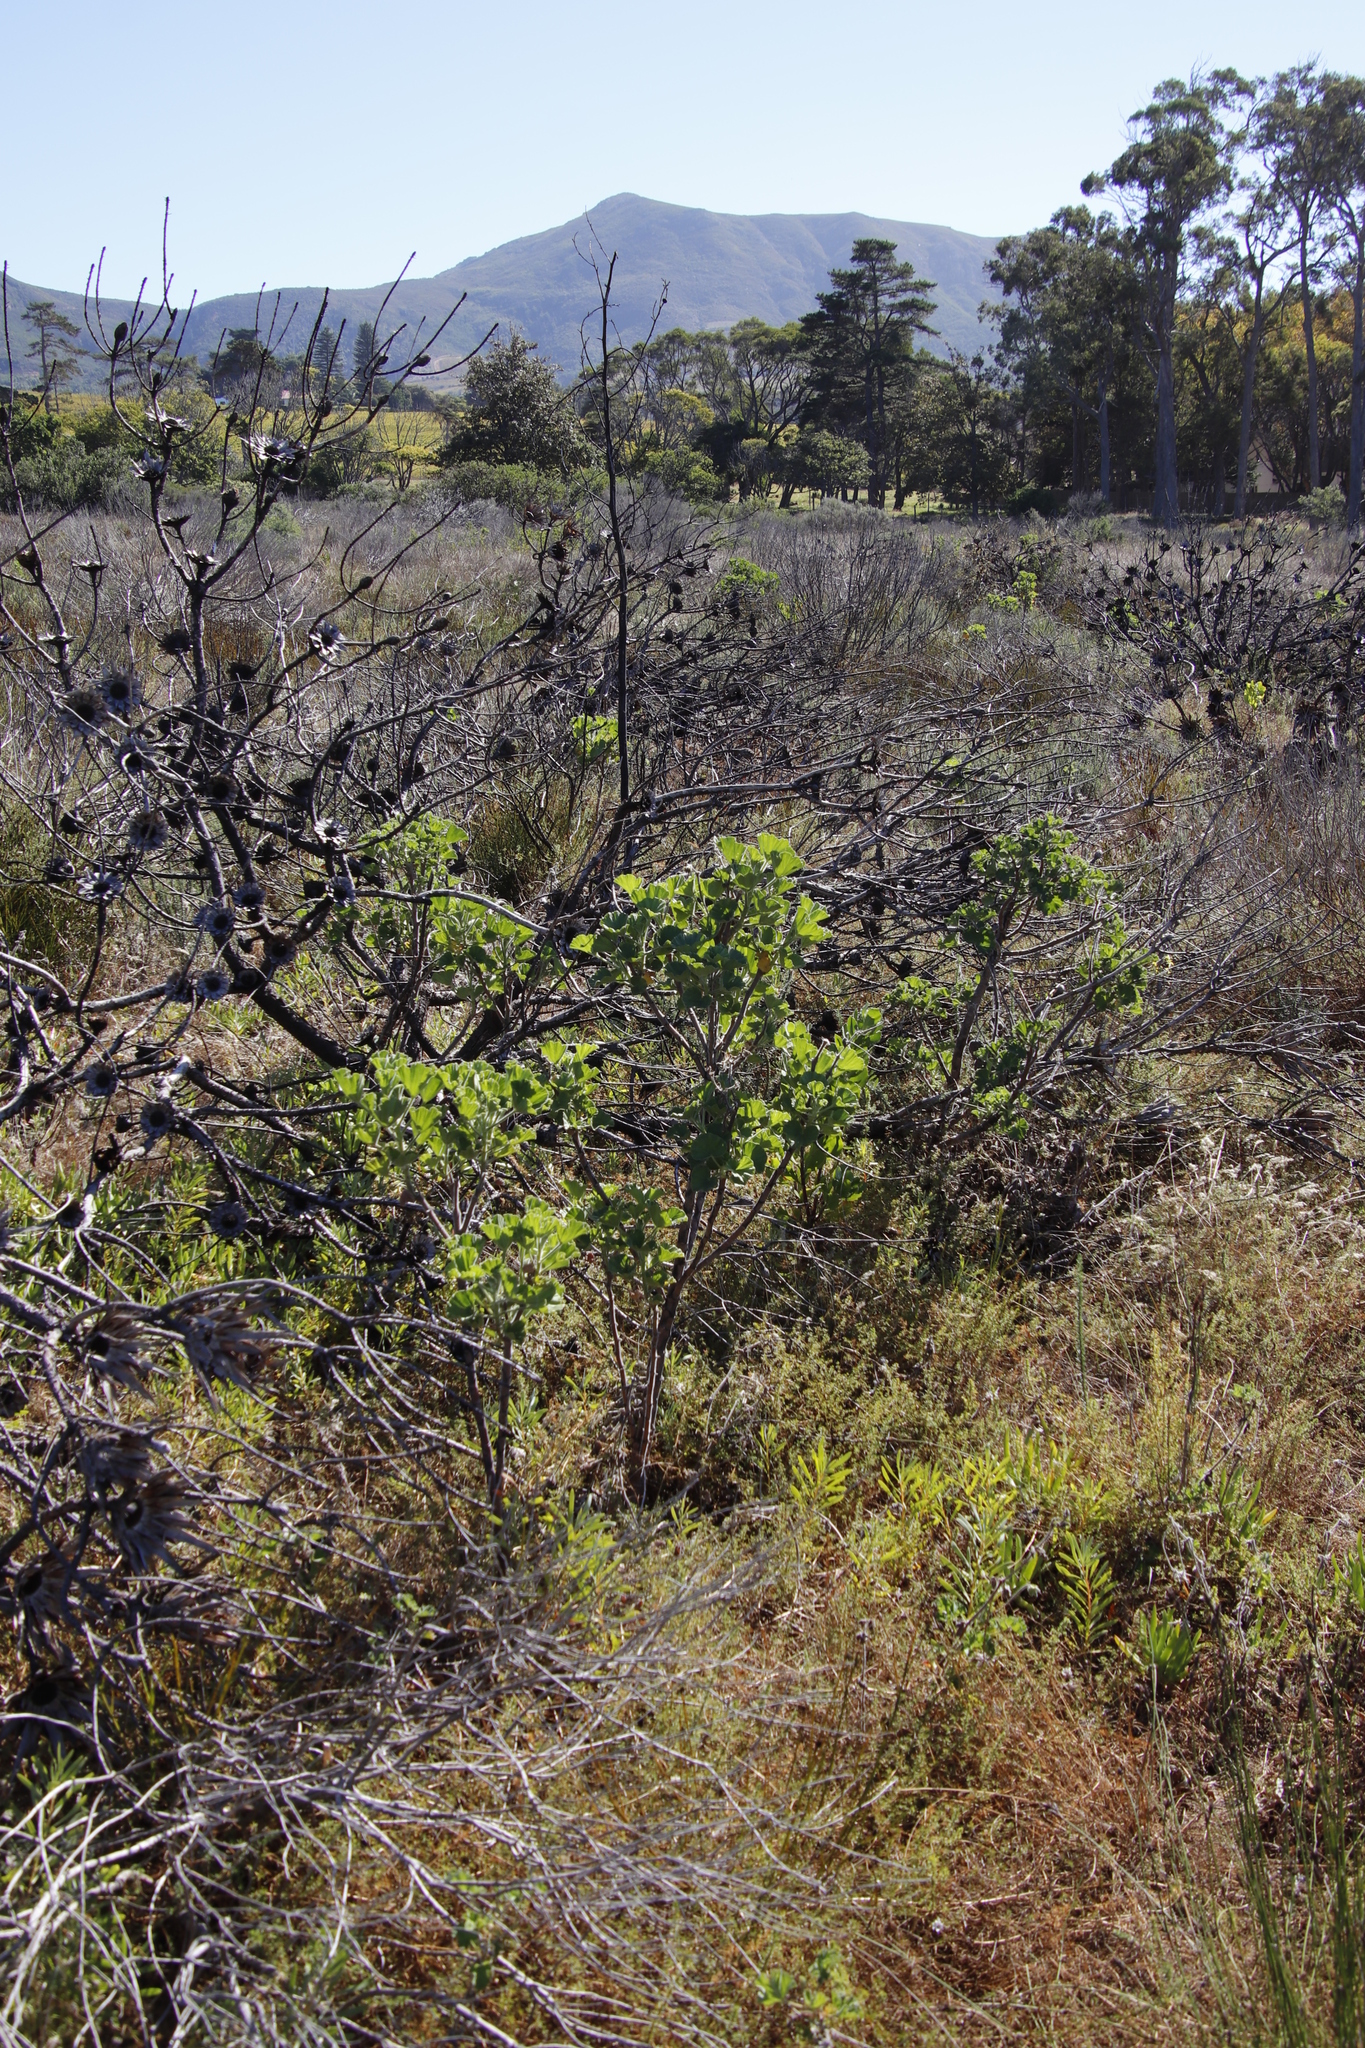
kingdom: Plantae
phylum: Tracheophyta
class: Magnoliopsida
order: Geraniales
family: Geraniaceae
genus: Pelargonium
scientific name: Pelargonium cucullatum
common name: Tree pelargonium
